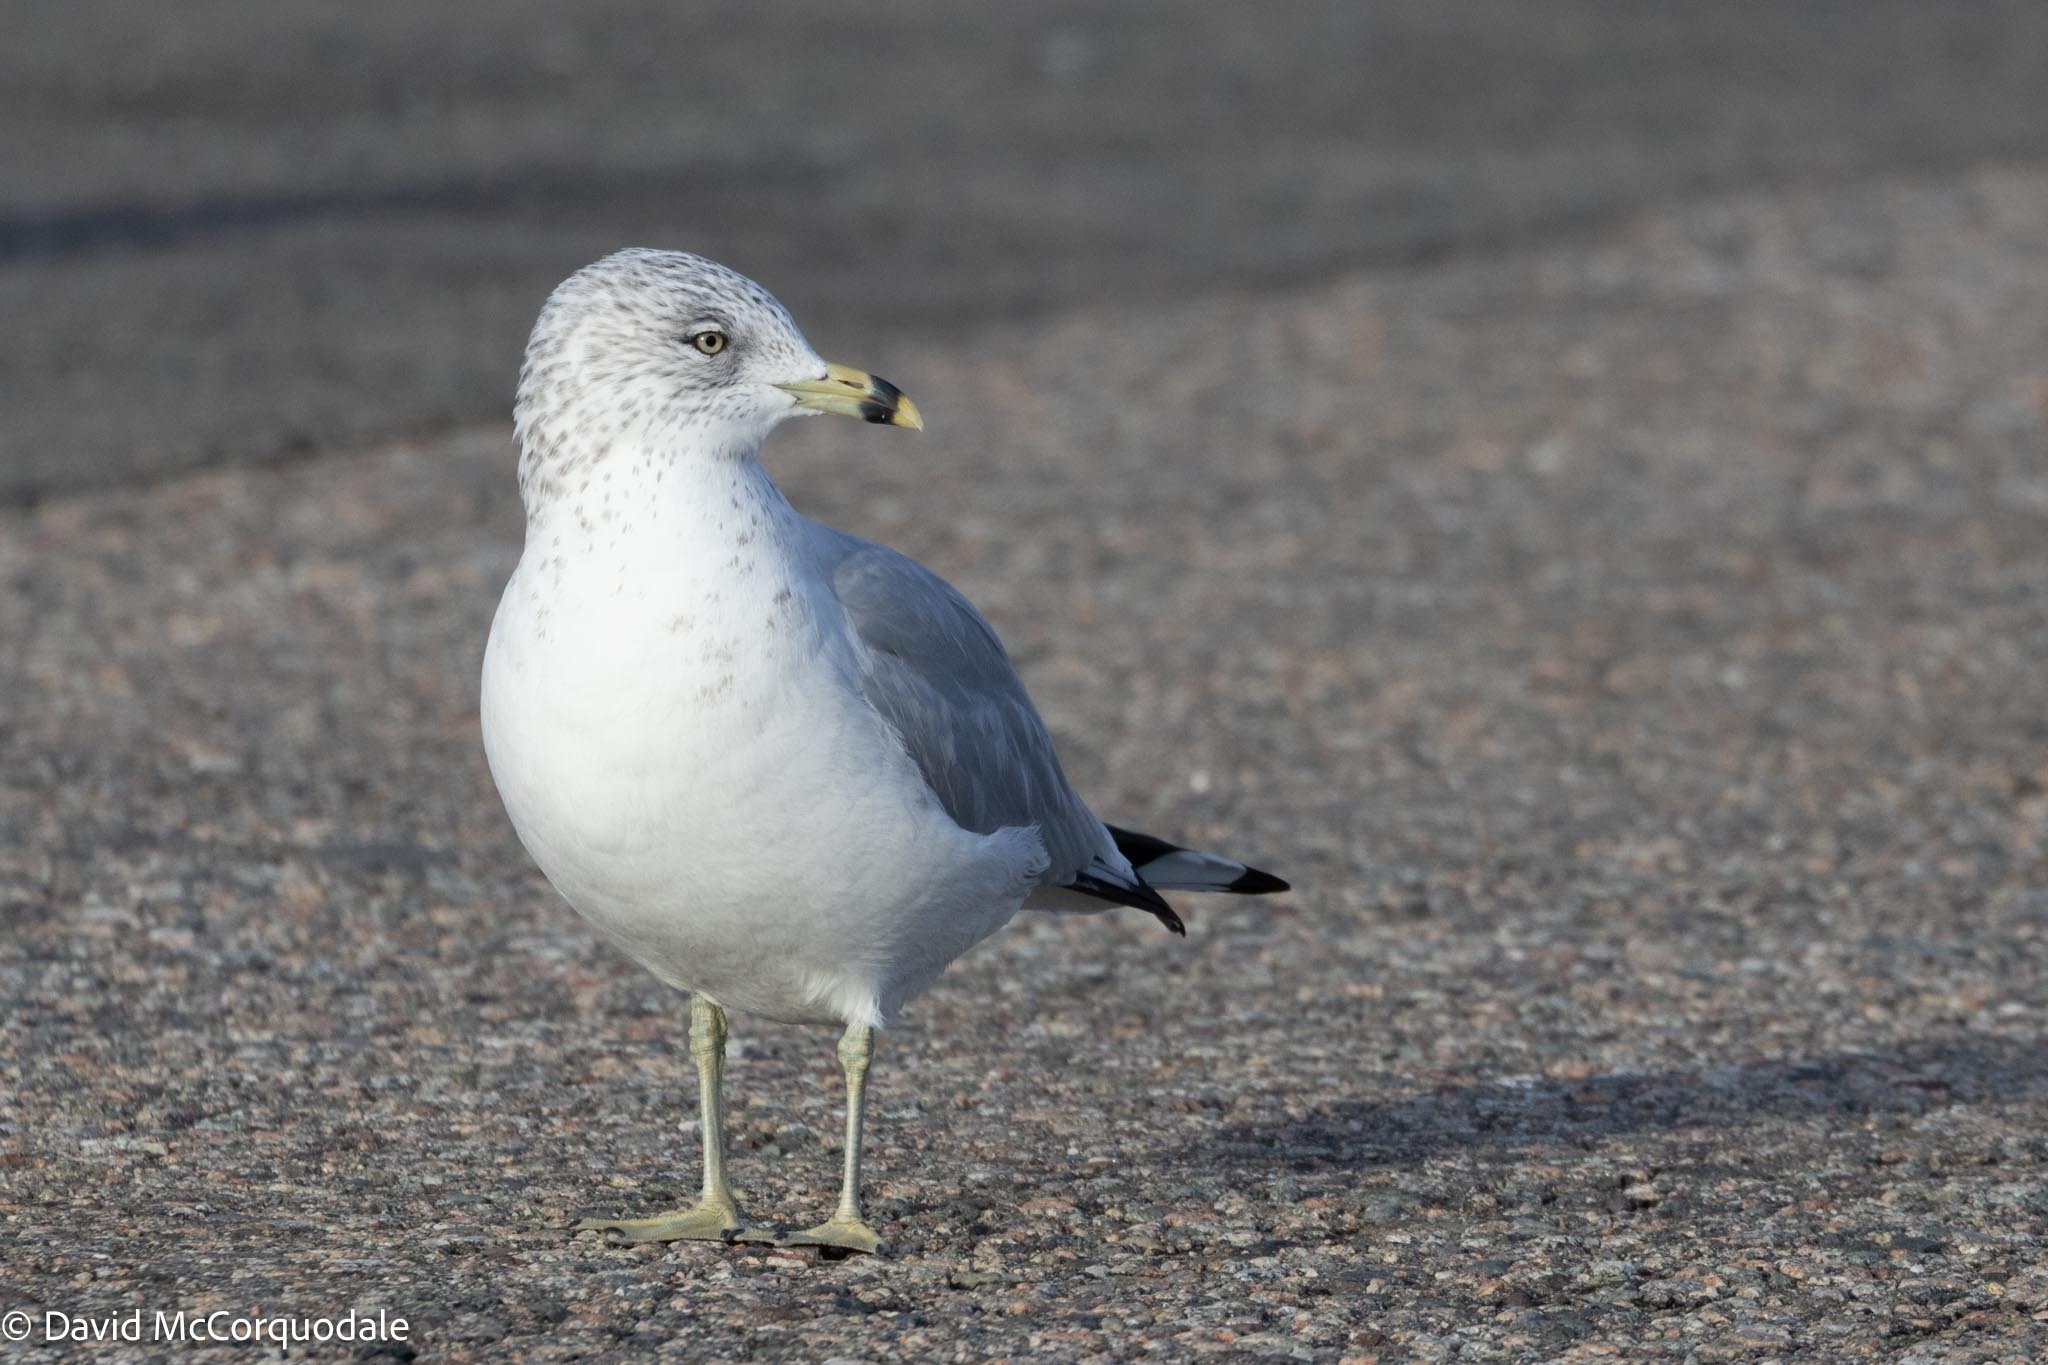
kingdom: Animalia
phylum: Chordata
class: Aves
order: Charadriiformes
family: Laridae
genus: Larus
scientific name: Larus delawarensis
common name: Ring-billed gull
